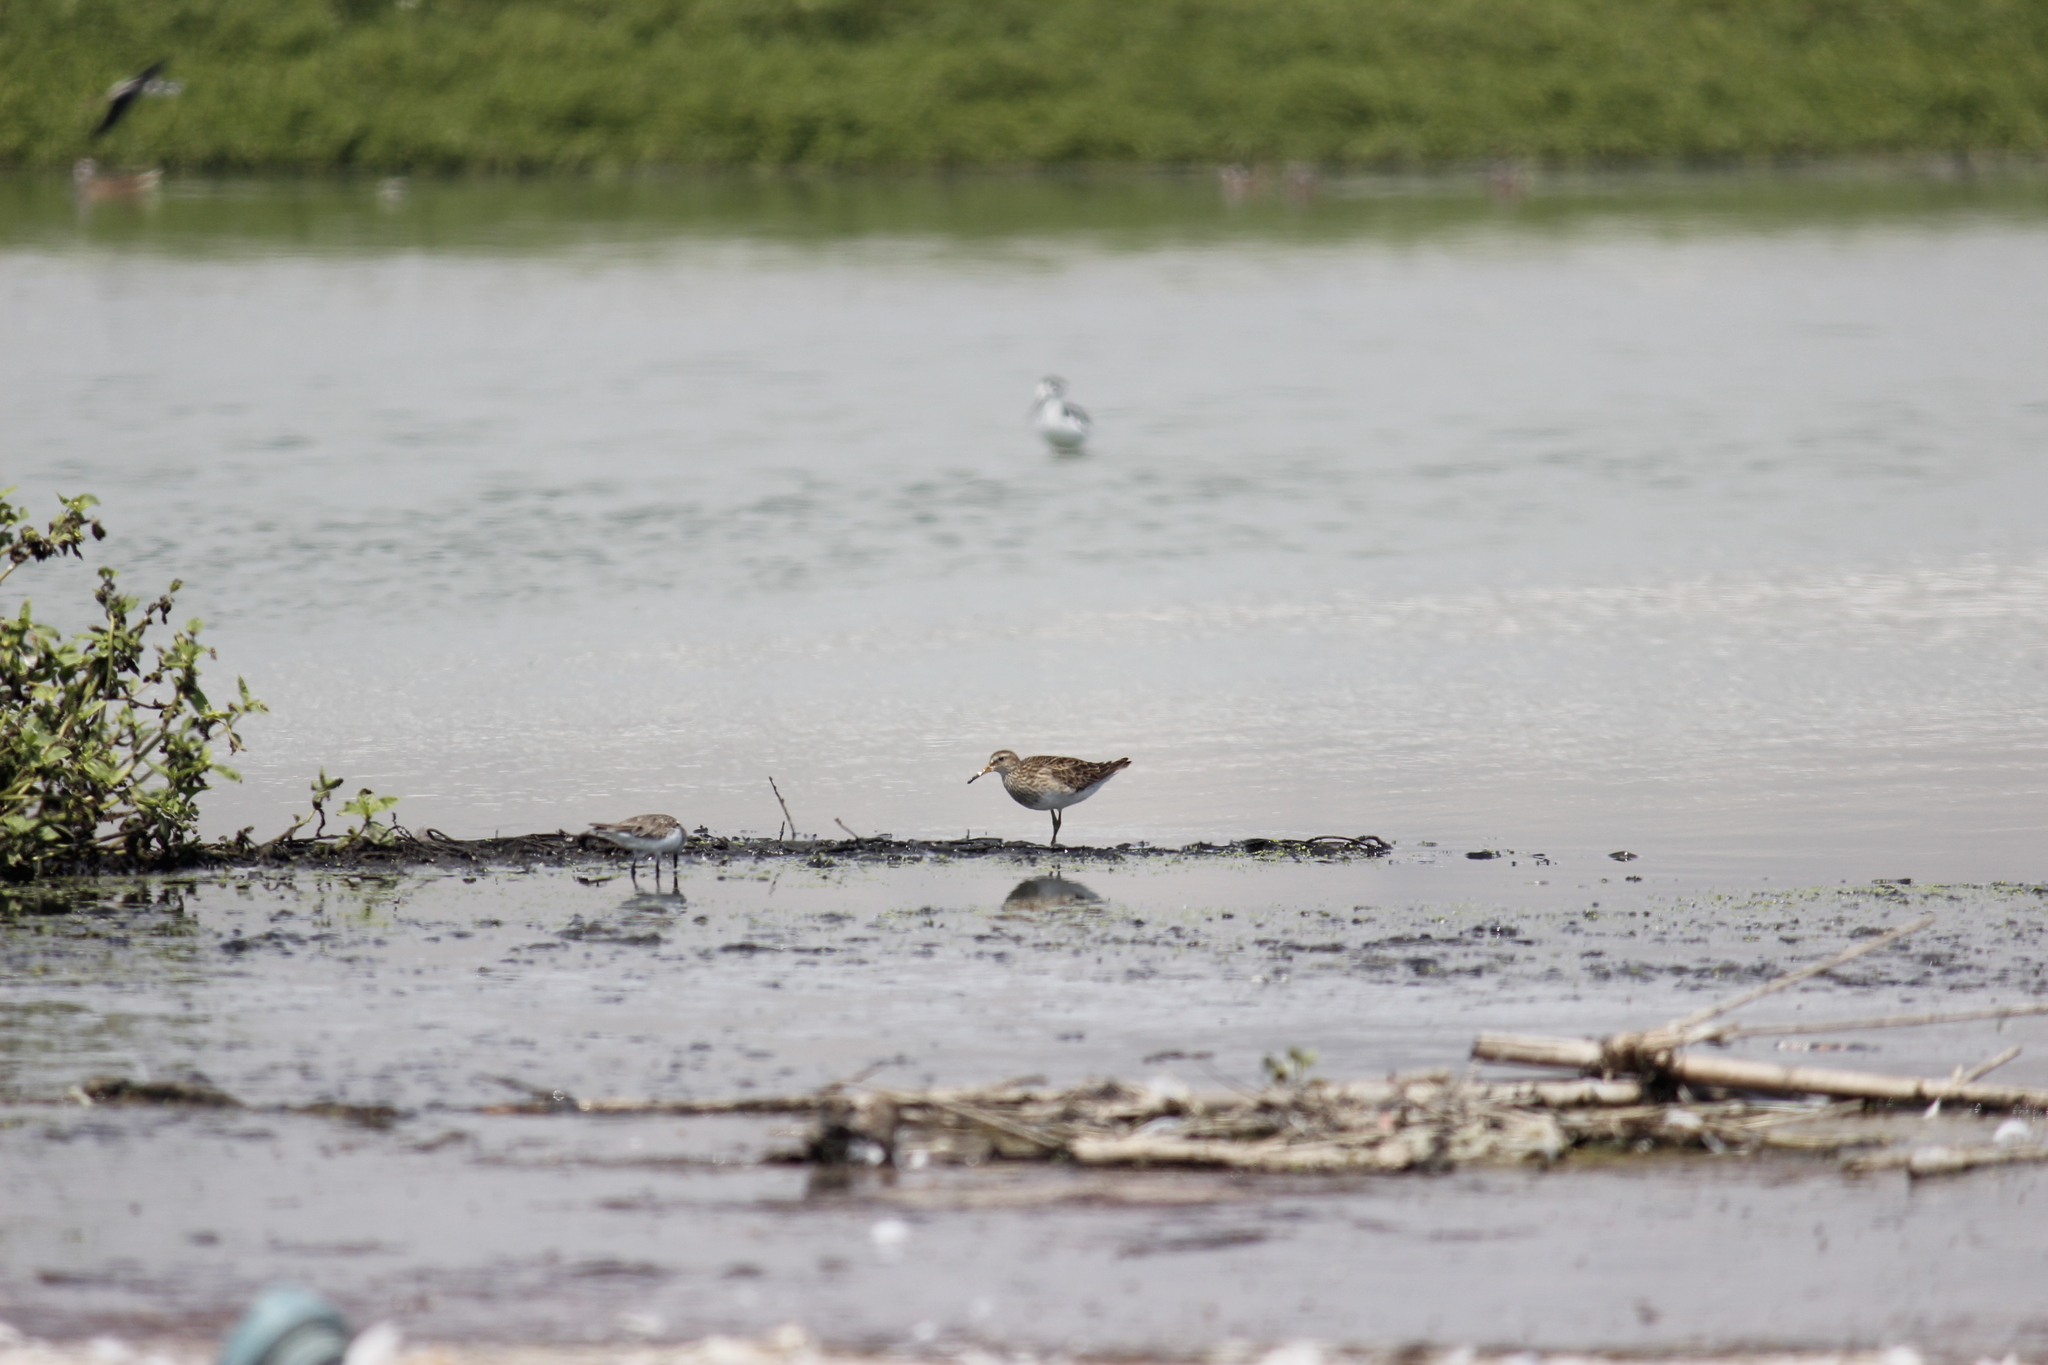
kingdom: Animalia
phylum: Chordata
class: Aves
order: Charadriiformes
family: Scolopacidae
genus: Calidris
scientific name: Calidris melanotos
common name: Pectoral sandpiper
